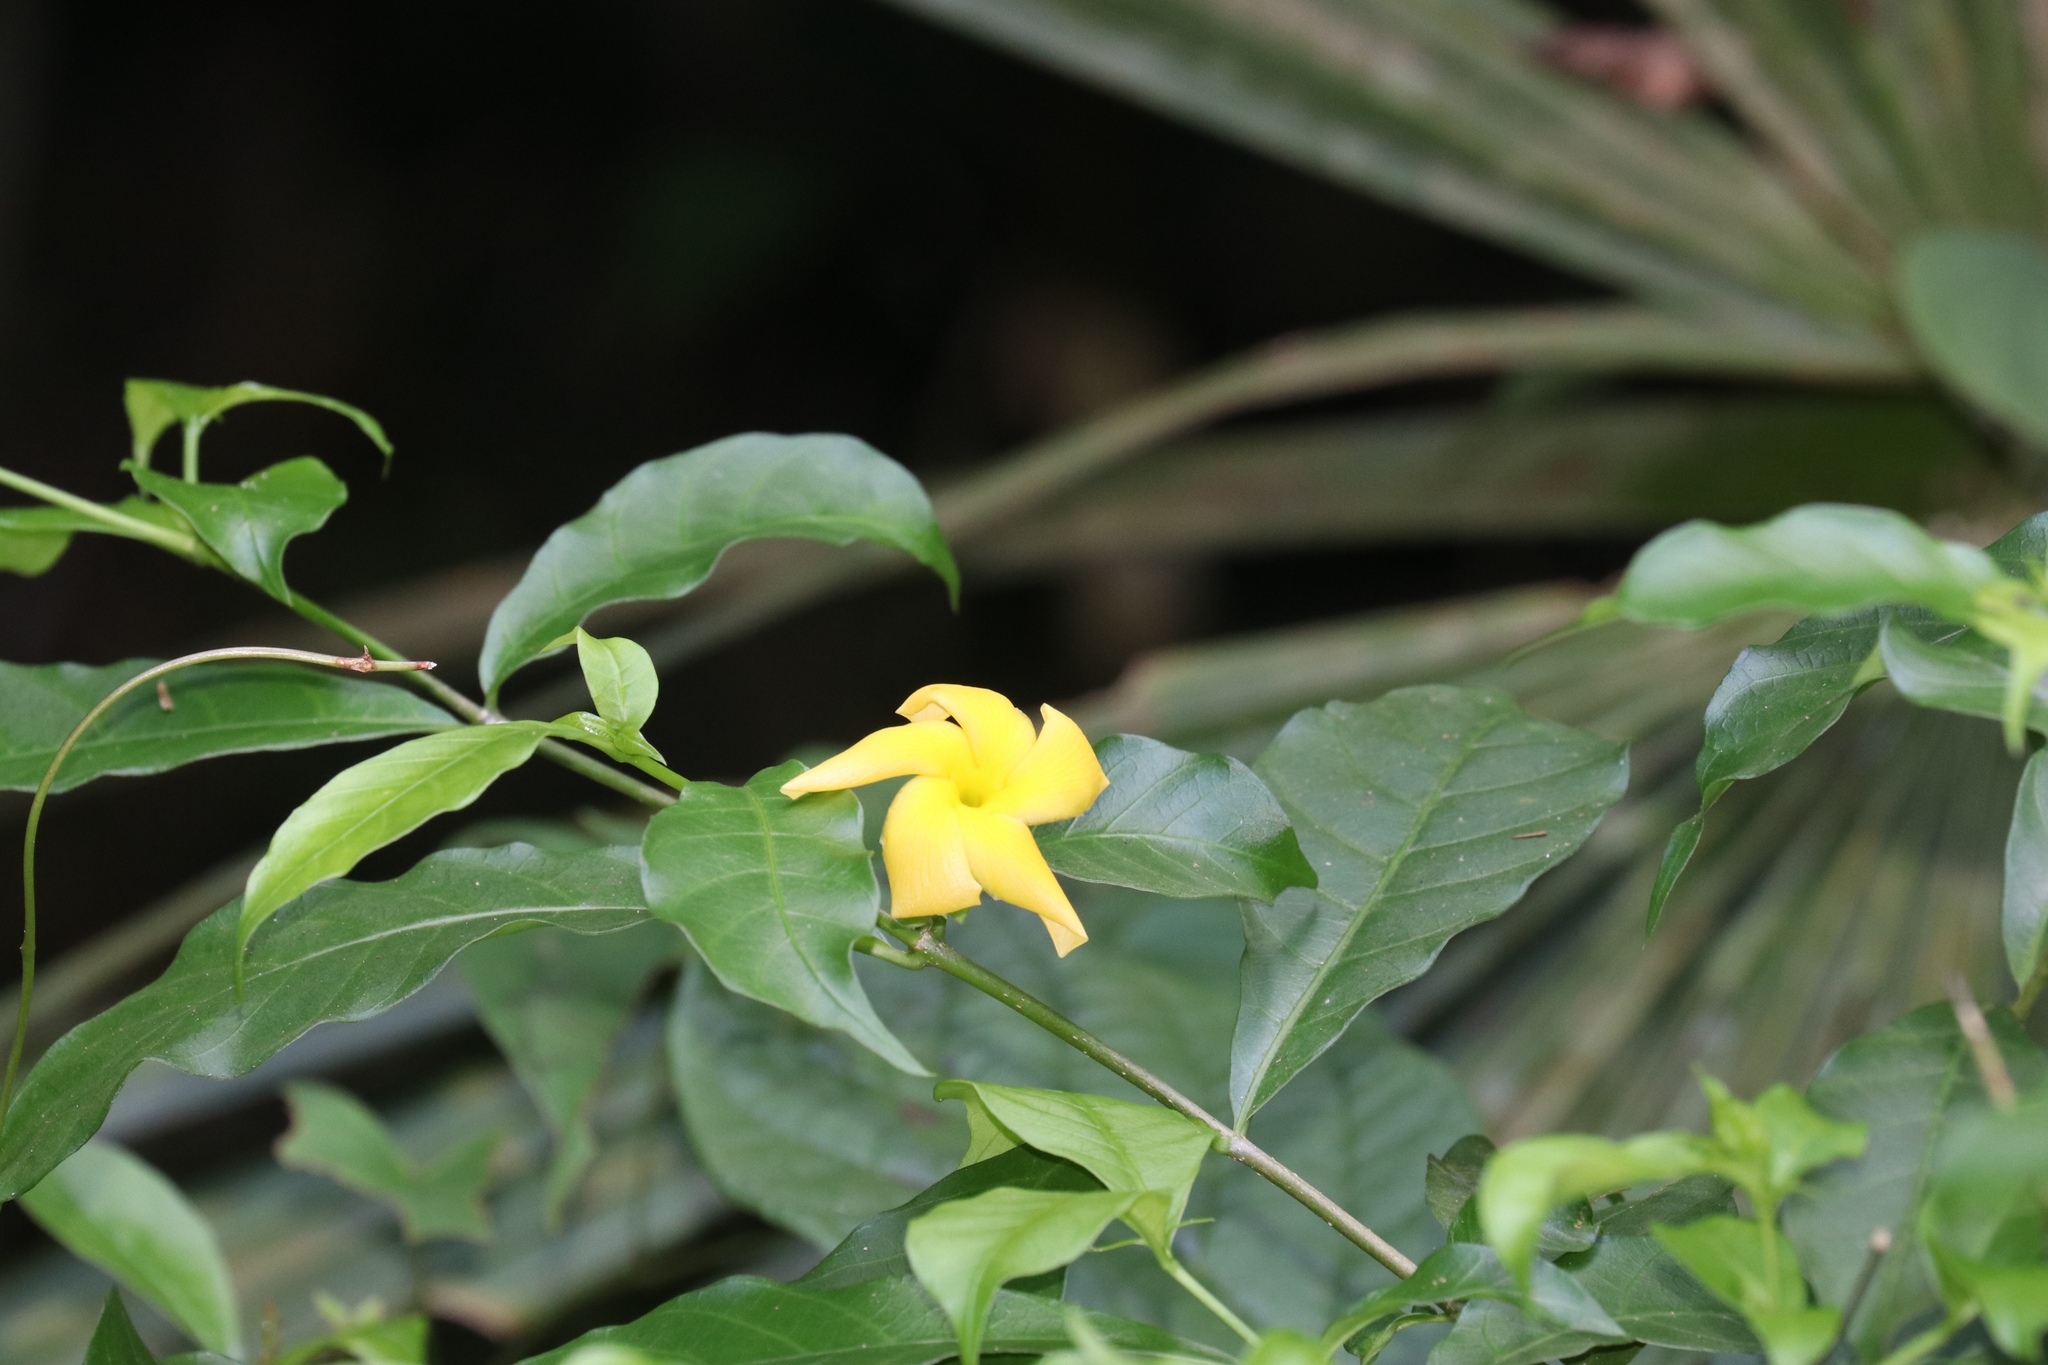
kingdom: Plantae
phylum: Tracheophyta
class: Magnoliopsida
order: Gentianales
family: Apocynaceae
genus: Tabernaemontana
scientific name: Tabernaemontana grandiflora
